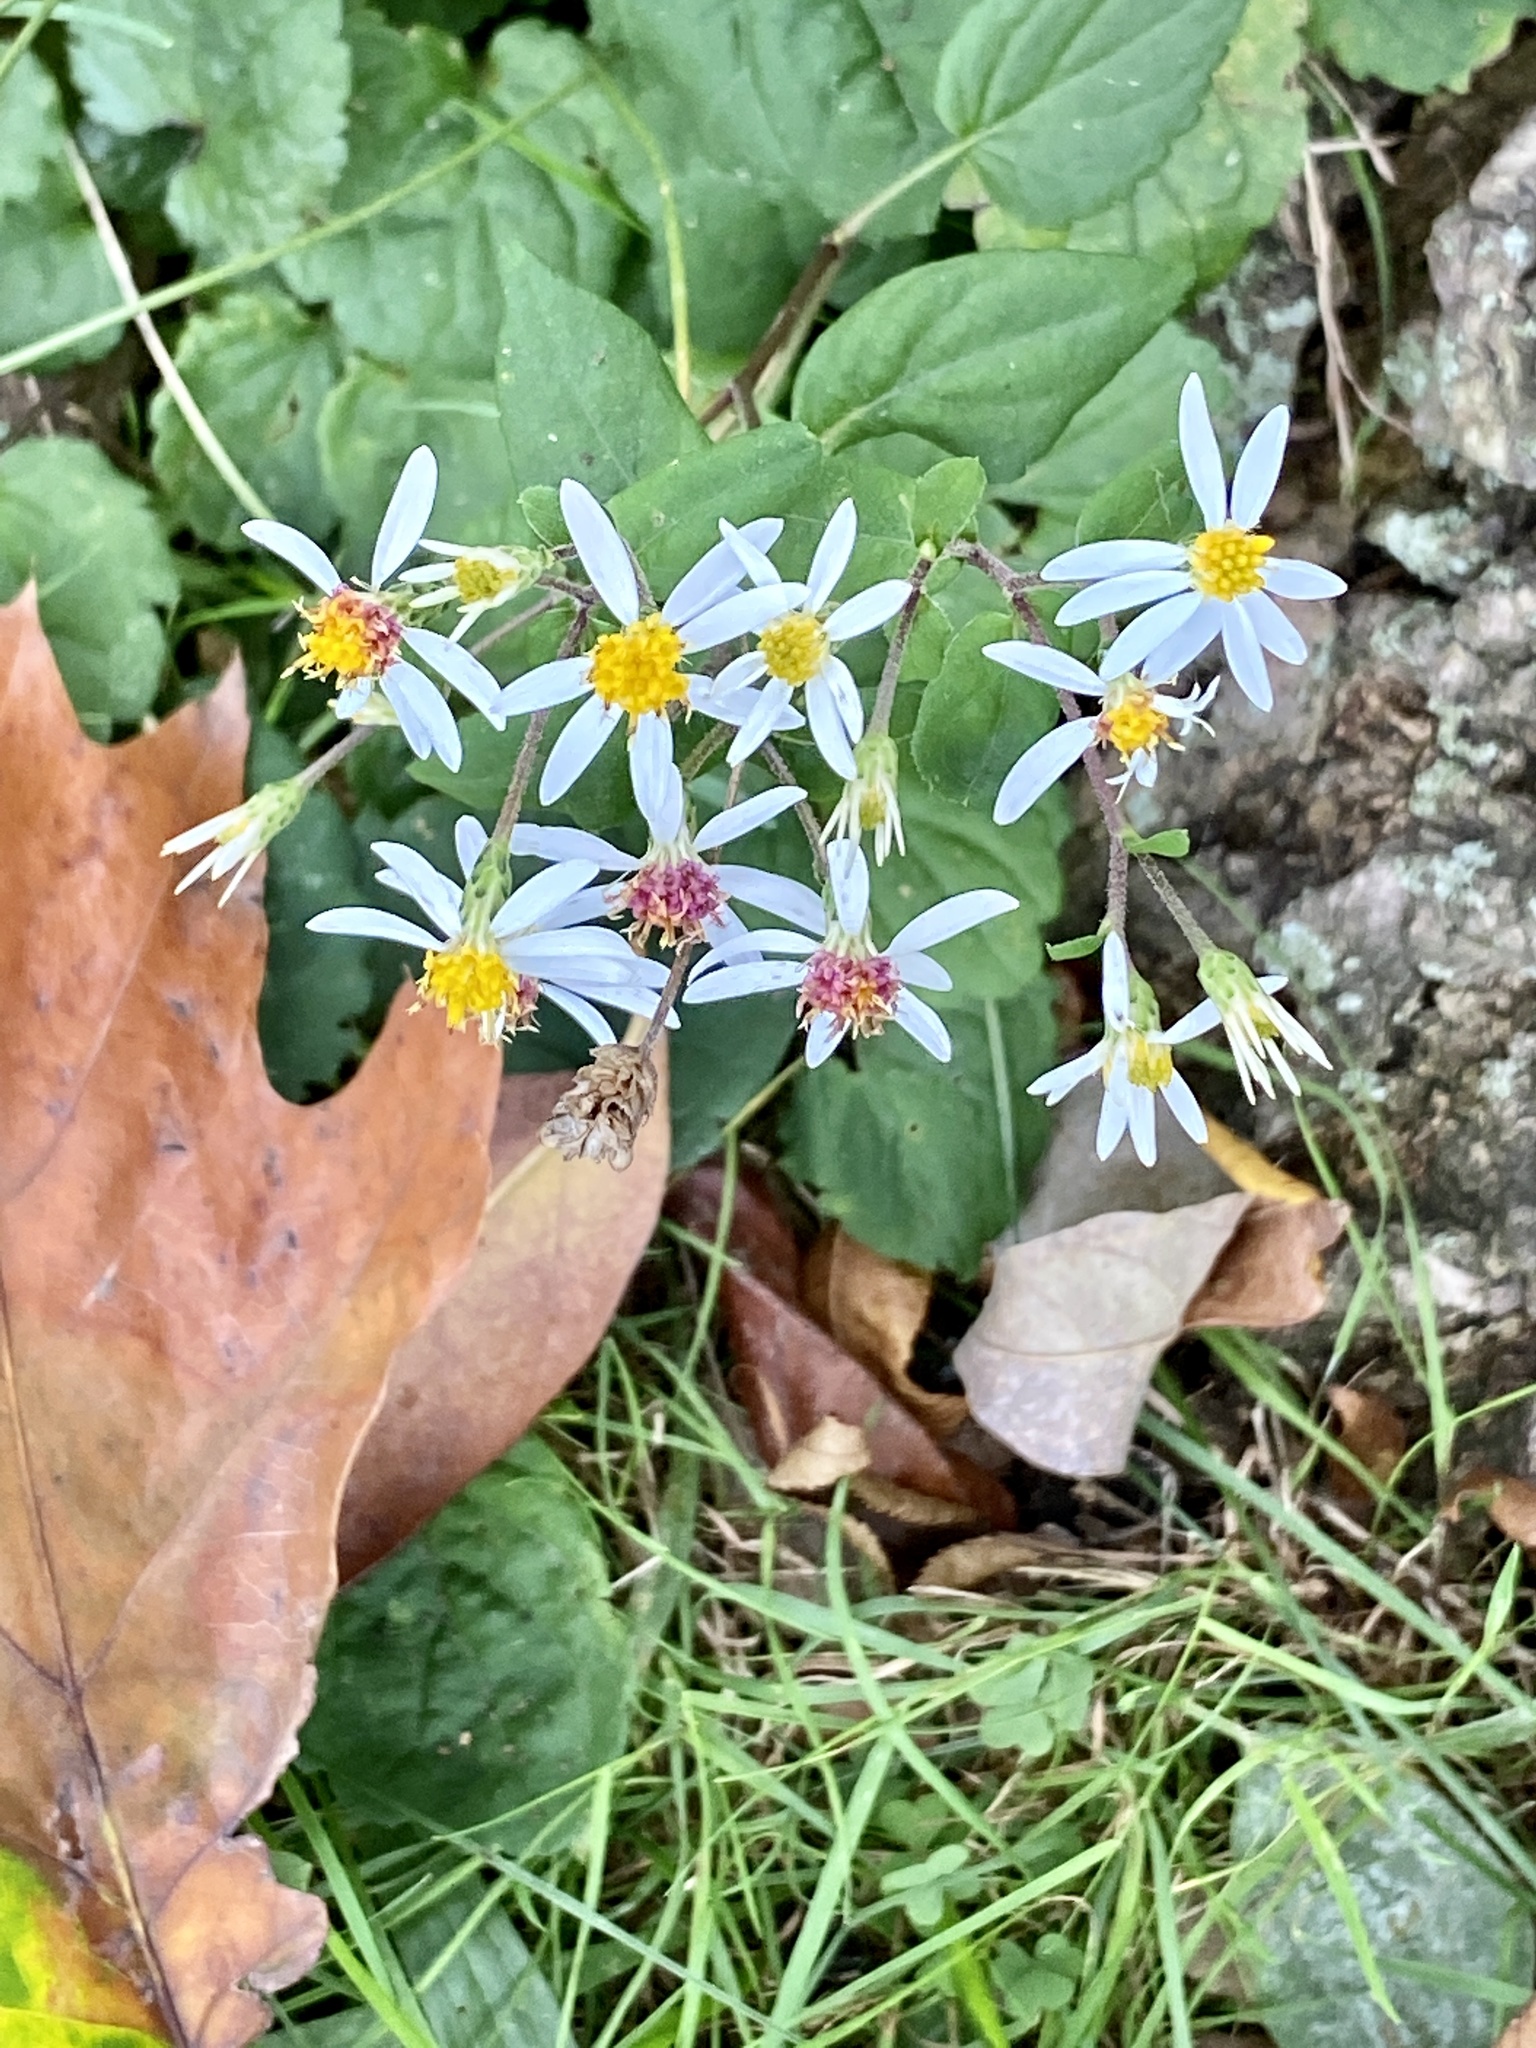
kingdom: Plantae
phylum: Tracheophyta
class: Magnoliopsida
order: Asterales
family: Asteraceae
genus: Eurybia
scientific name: Eurybia divaricata
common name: White wood aster
